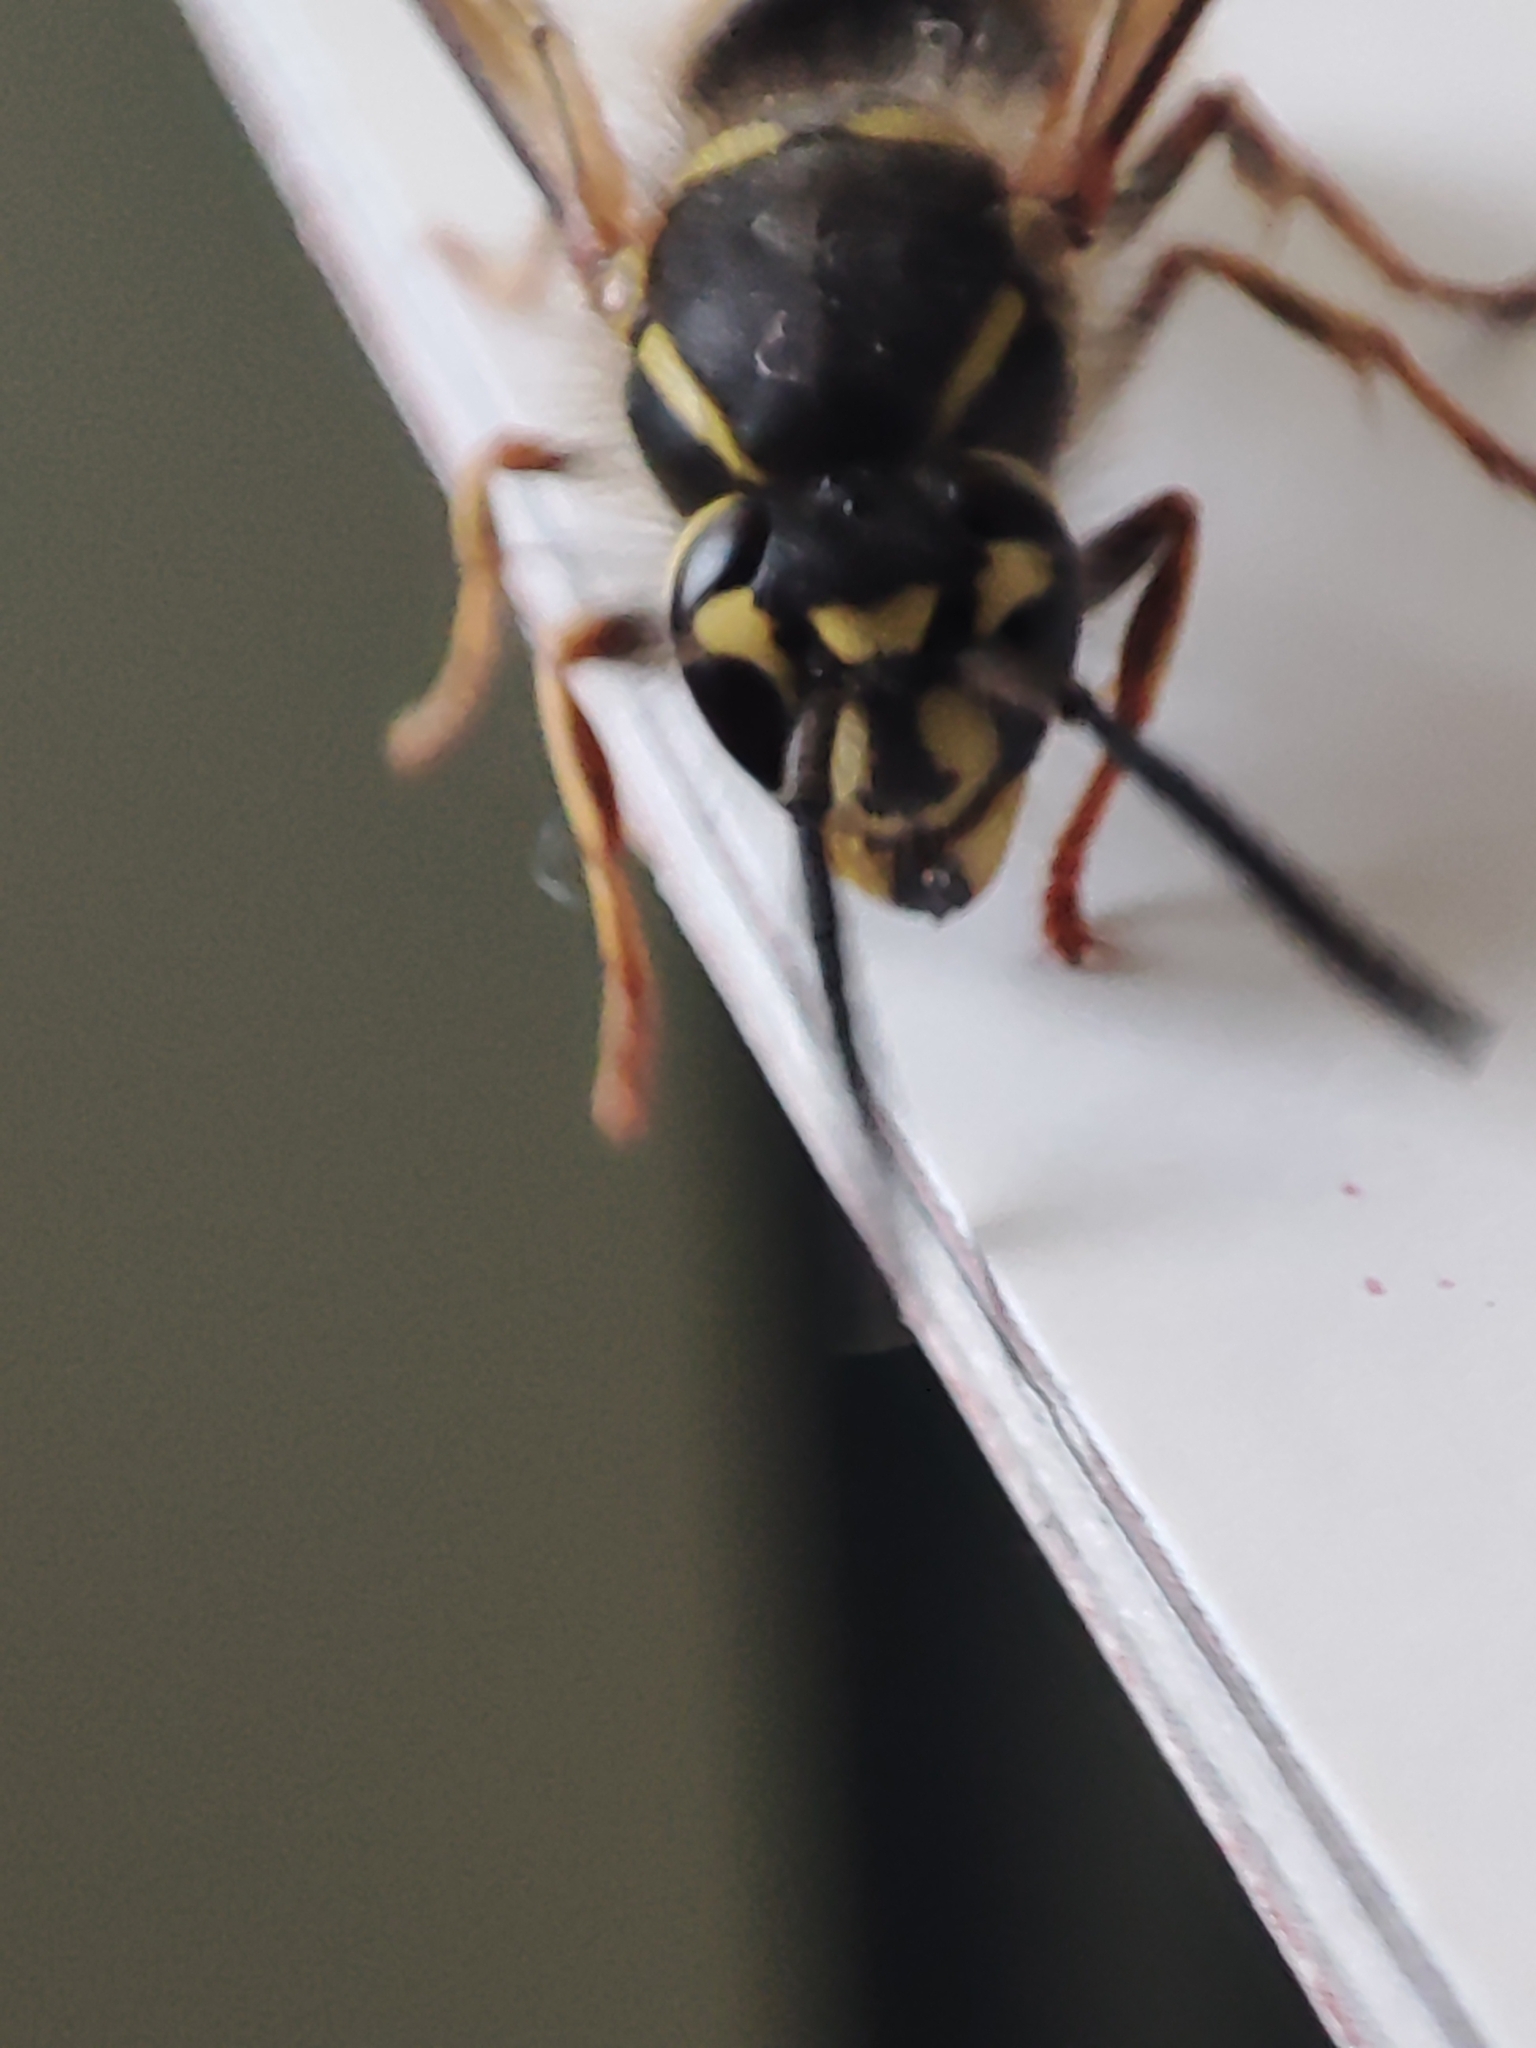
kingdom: Animalia
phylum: Arthropoda
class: Insecta
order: Hymenoptera
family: Vespidae
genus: Vespula
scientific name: Vespula vulgaris
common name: Common wasp
